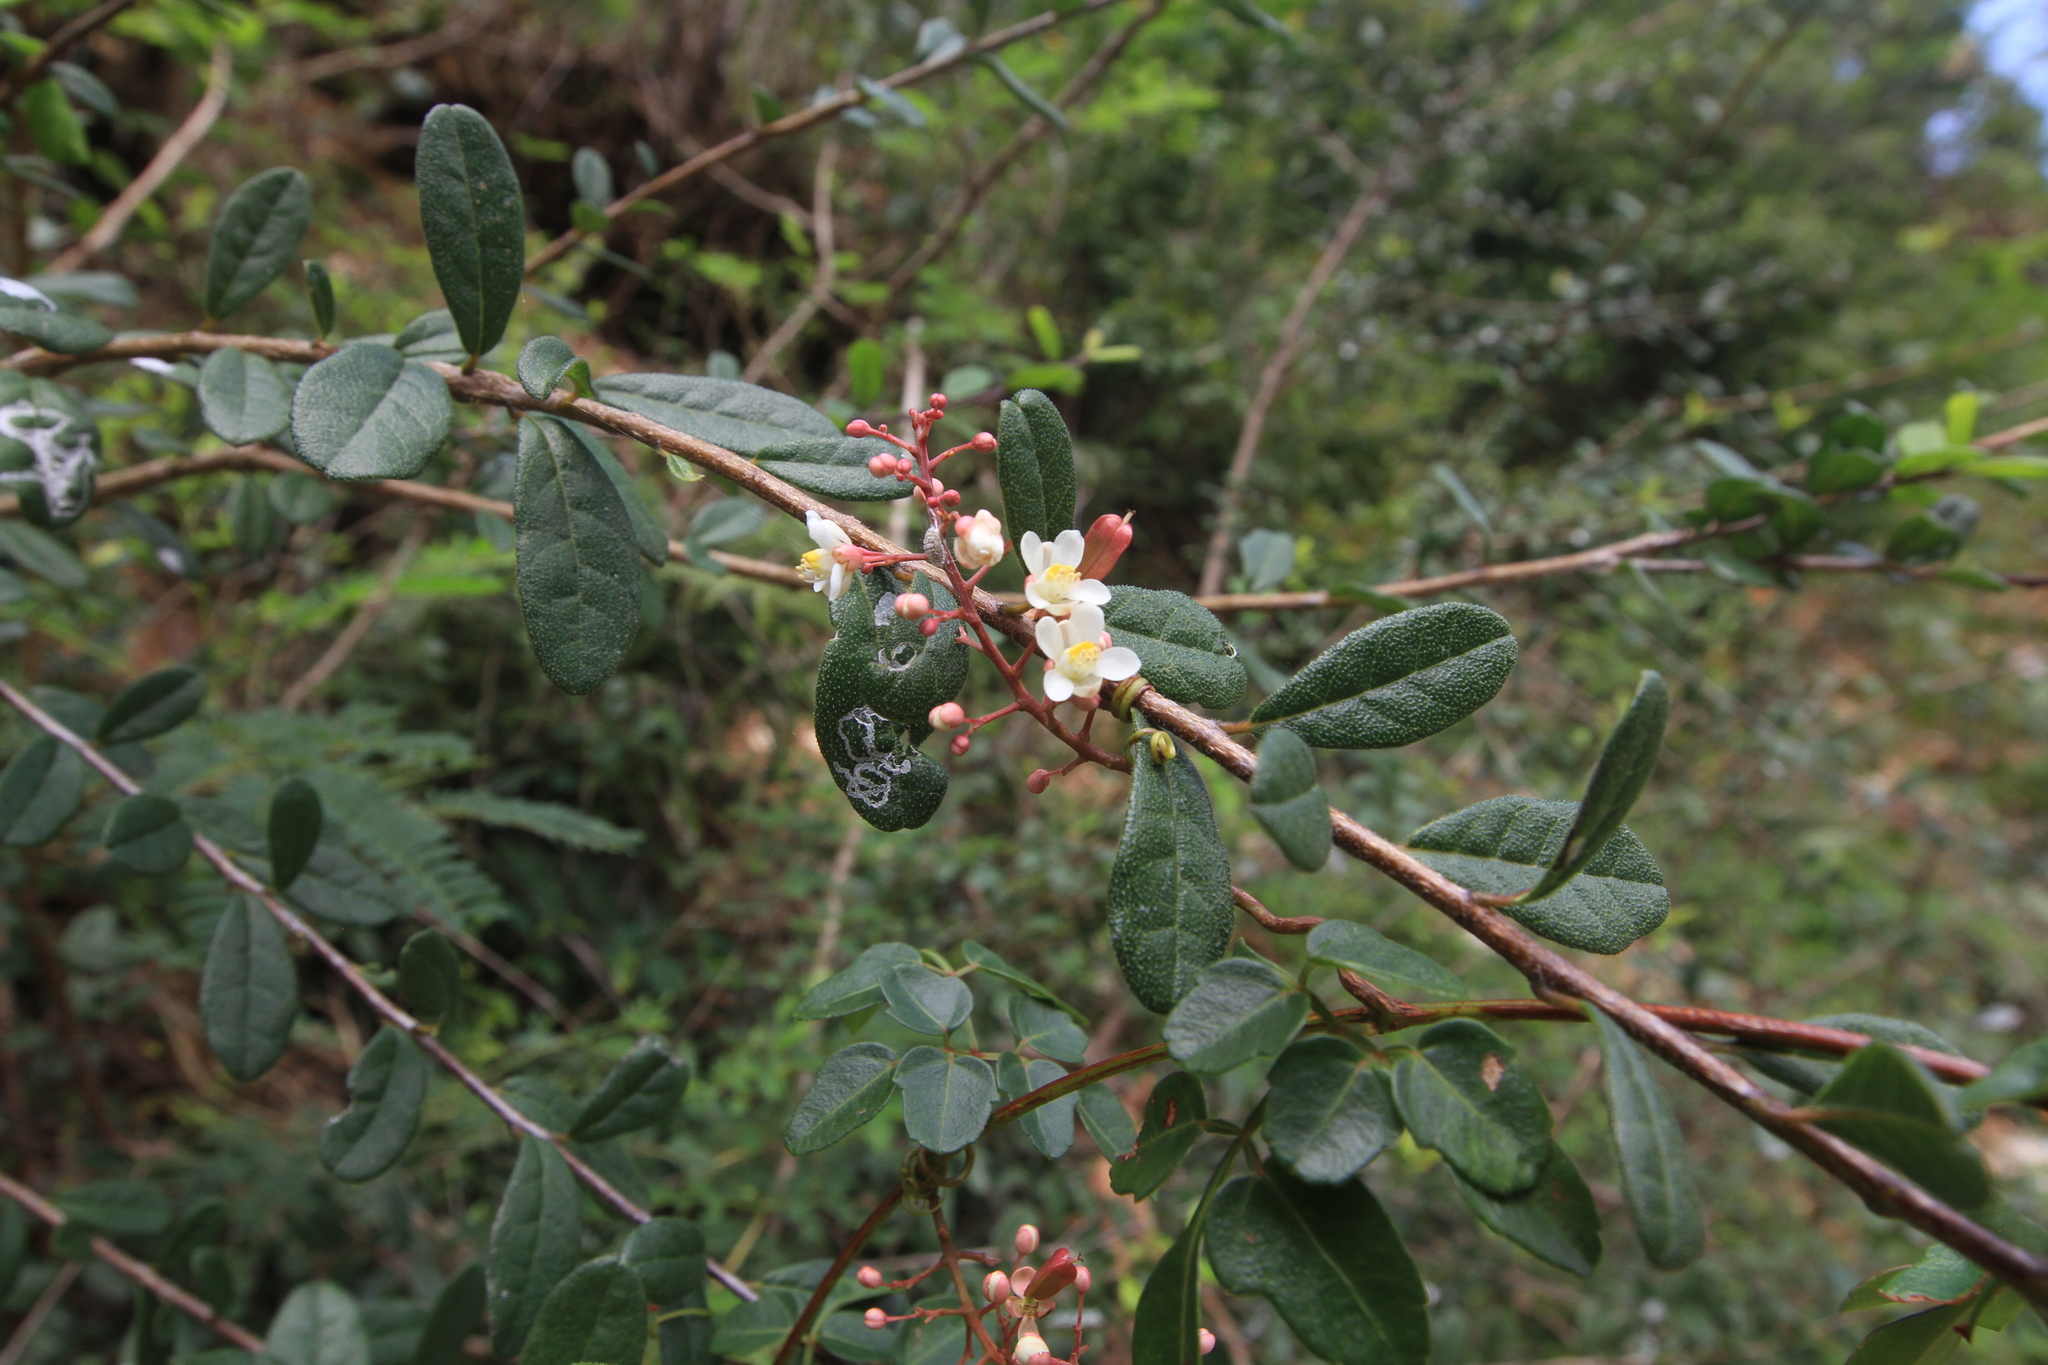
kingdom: Plantae
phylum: Tracheophyta
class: Magnoliopsida
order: Sapindales
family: Sapindaceae
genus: Serjania
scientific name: Serjania polyphylla
